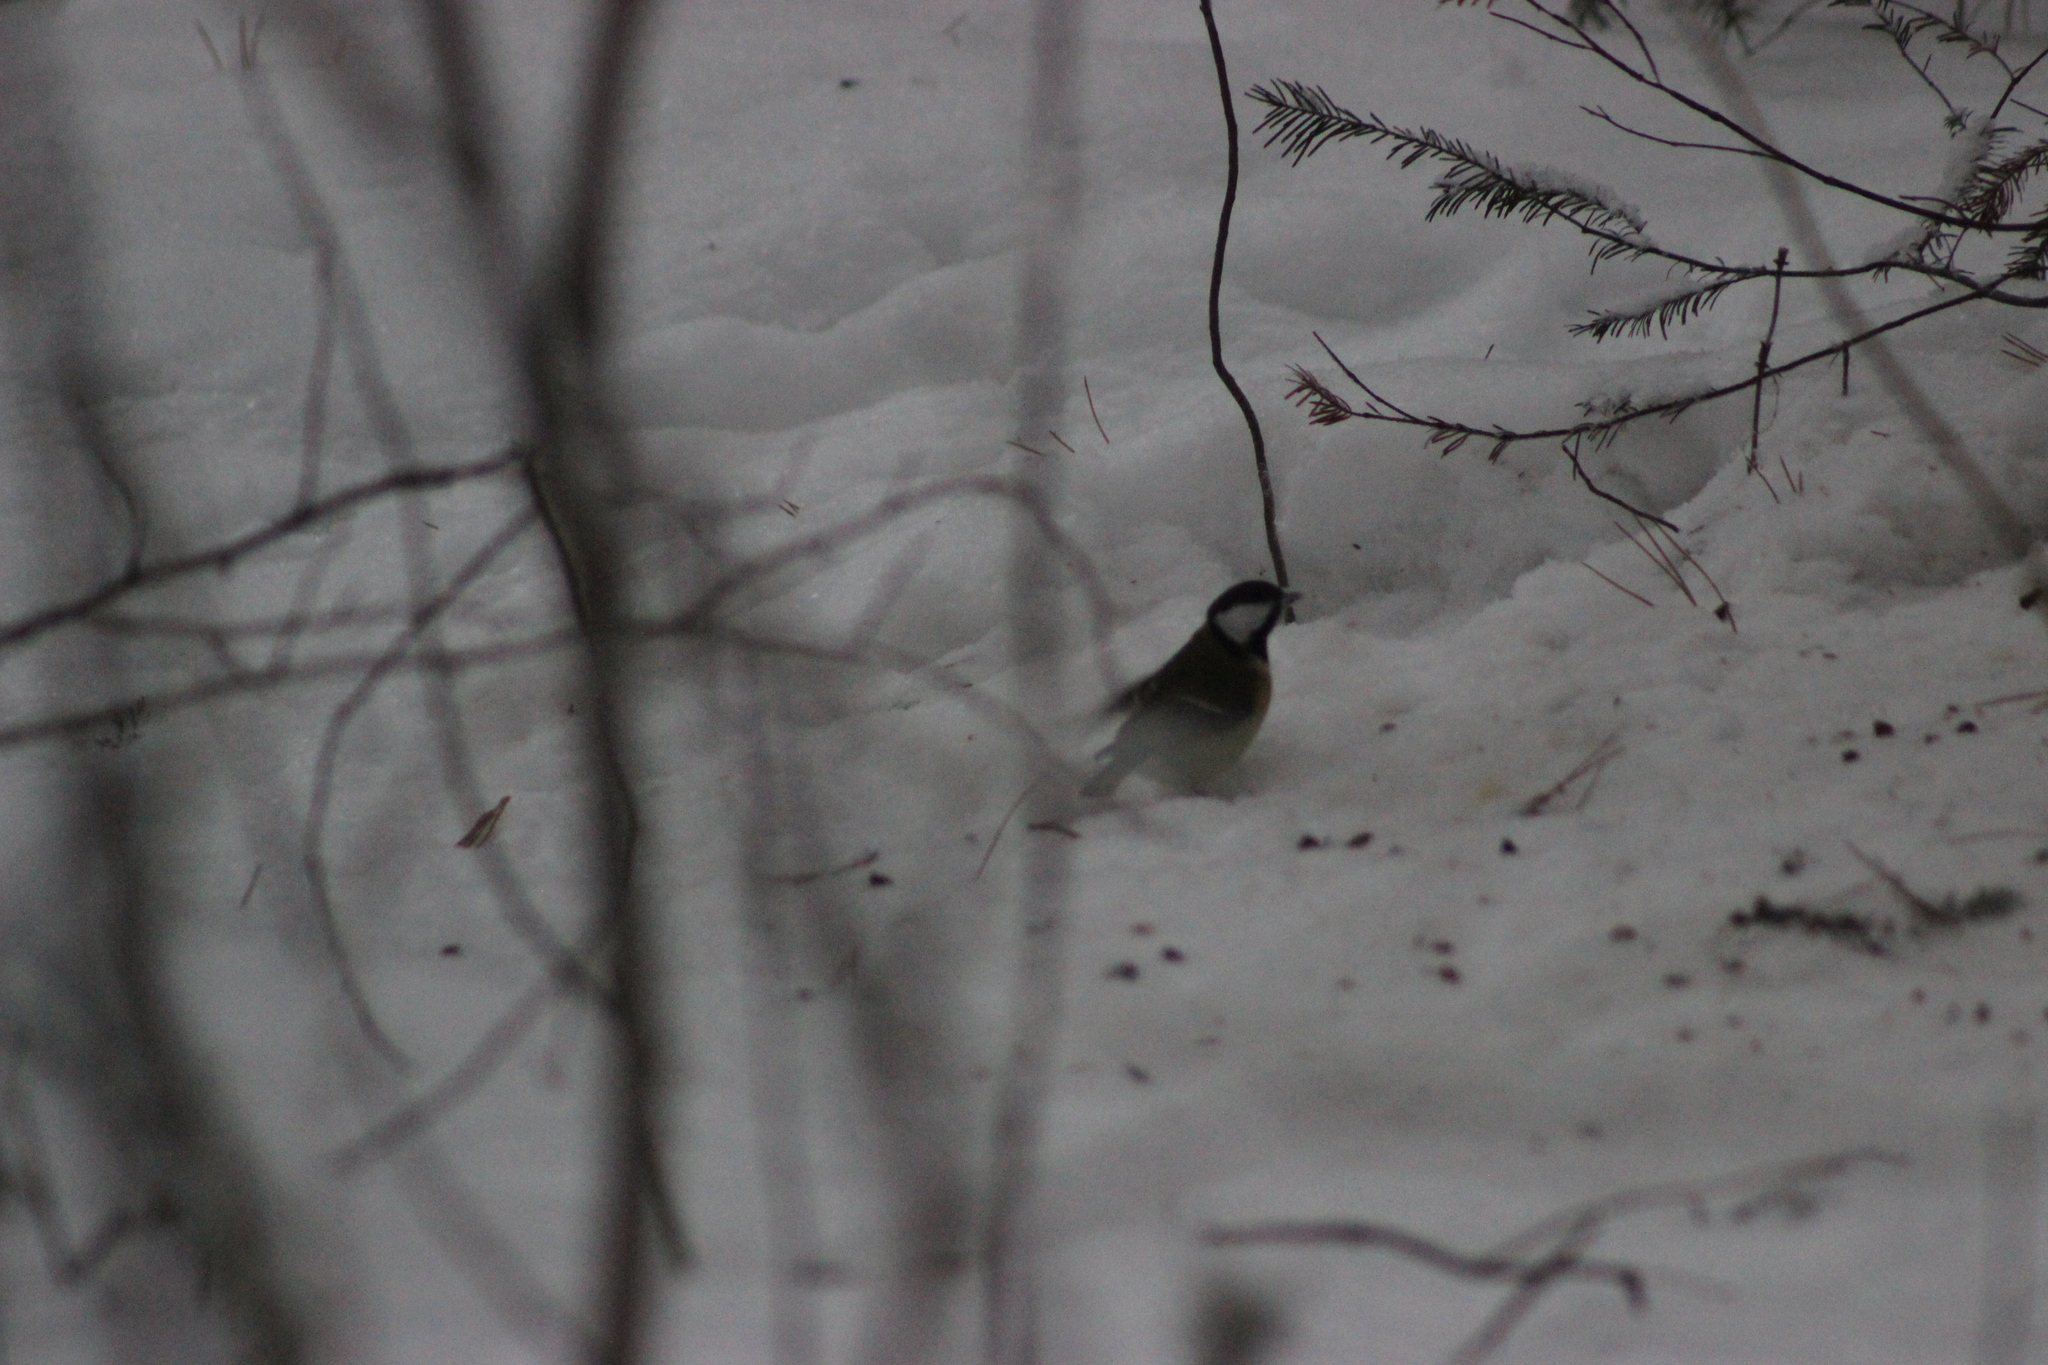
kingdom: Animalia
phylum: Chordata
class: Aves
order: Passeriformes
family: Paridae
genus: Parus
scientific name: Parus major
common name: Great tit
